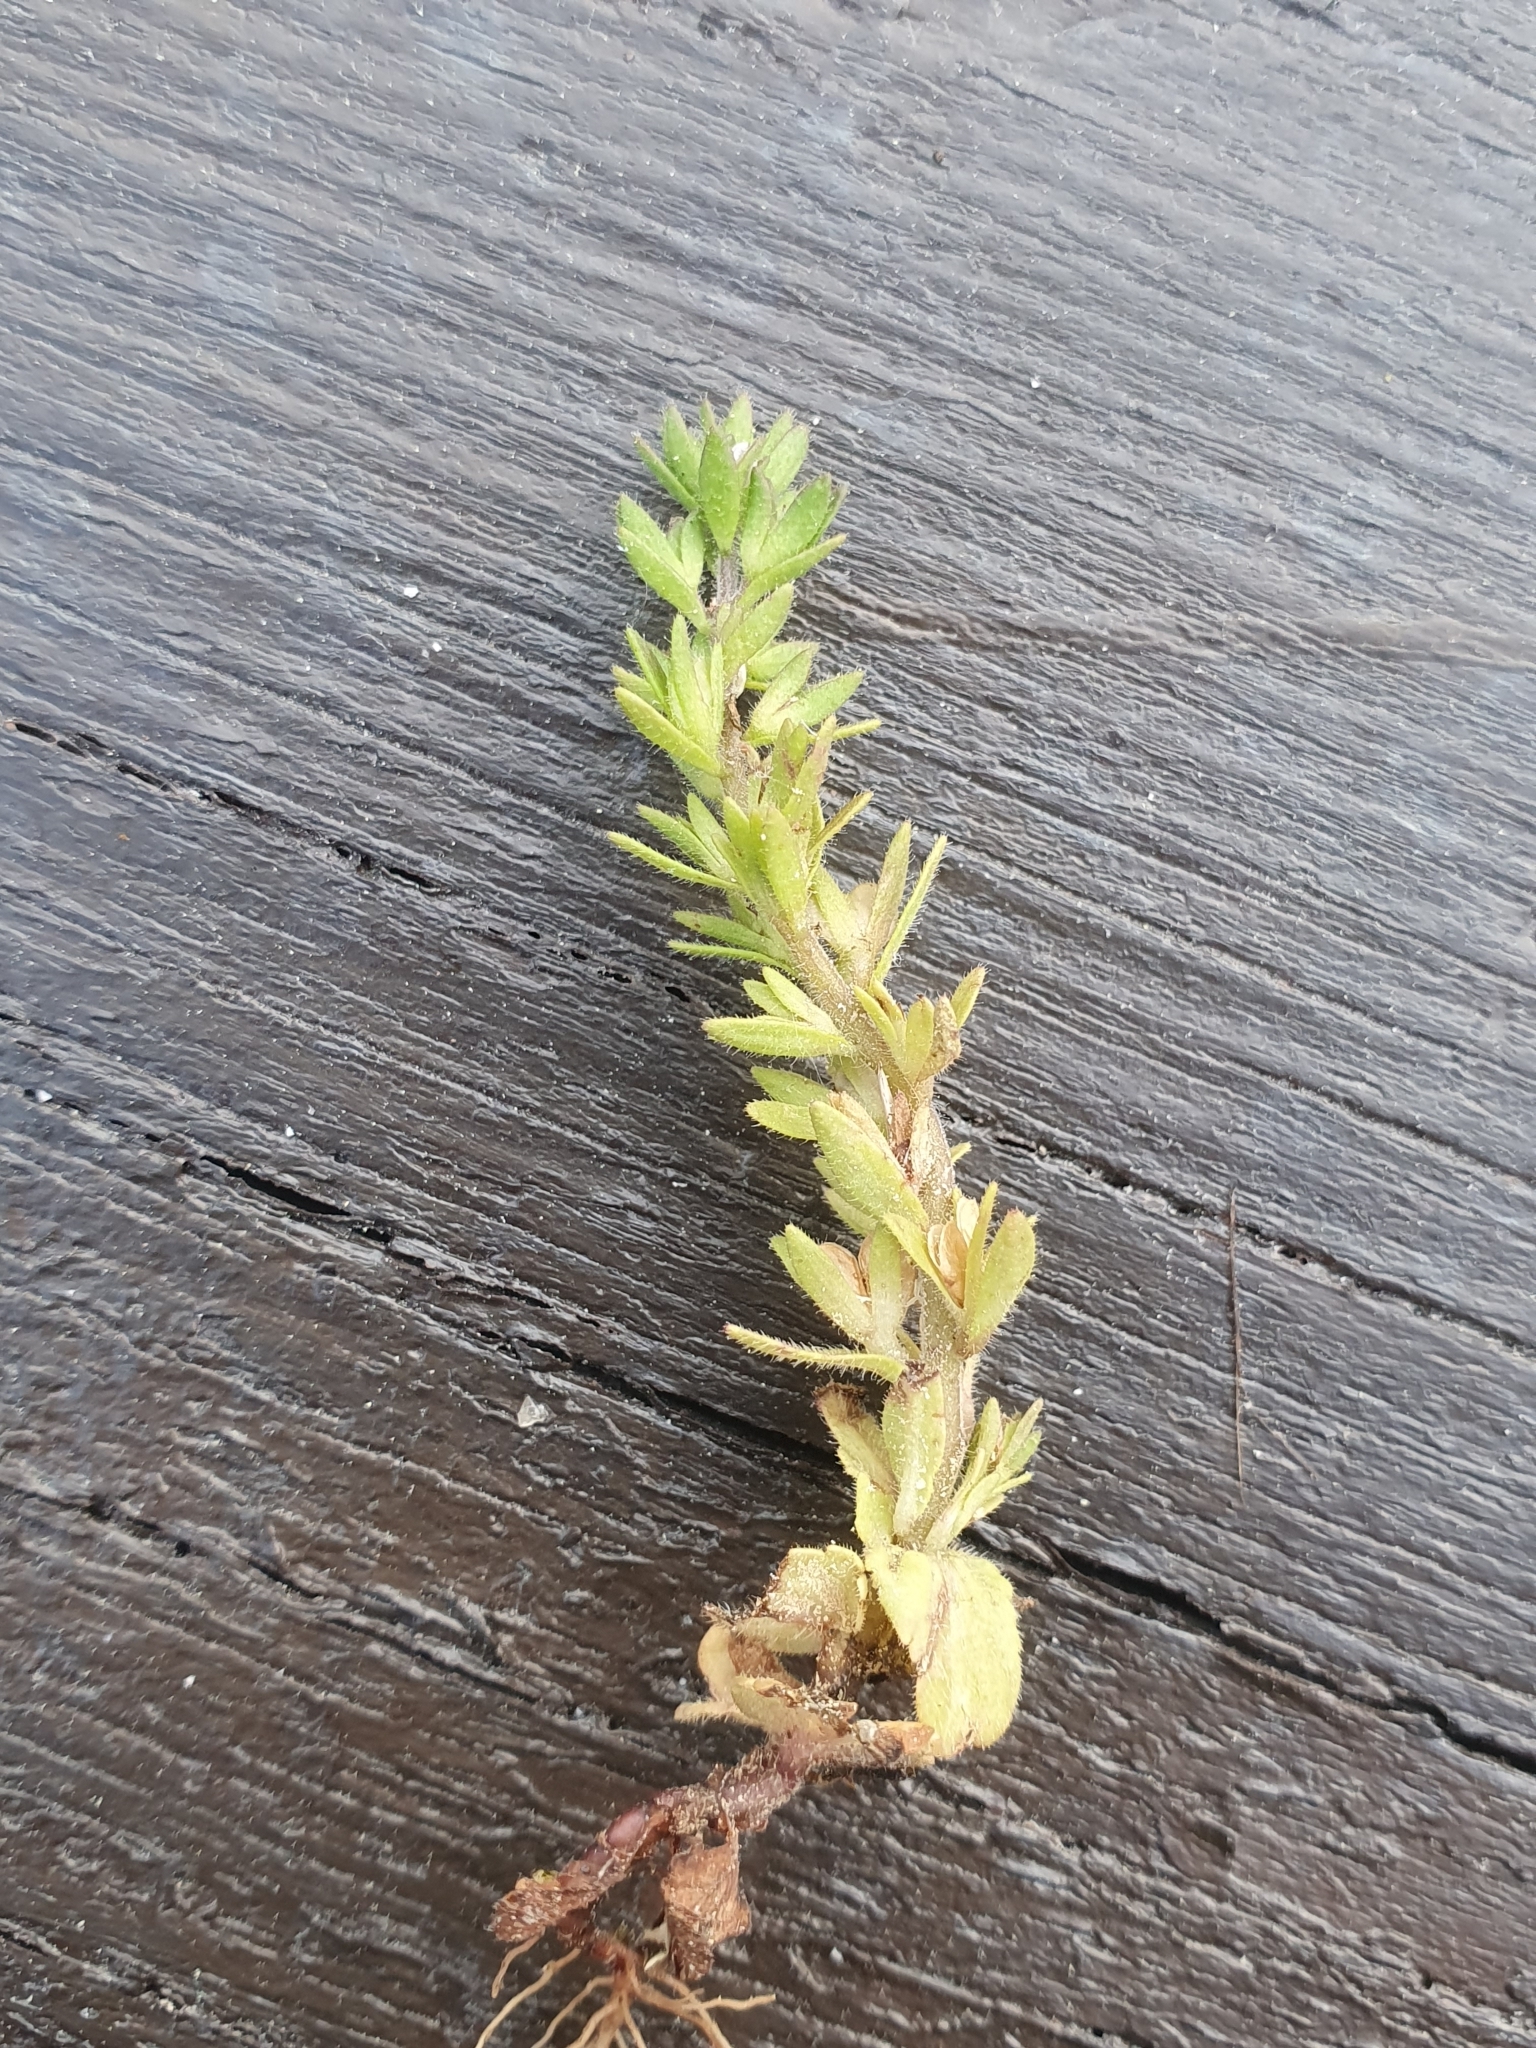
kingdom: Plantae
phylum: Tracheophyta
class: Magnoliopsida
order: Lamiales
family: Plantaginaceae
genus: Veronica
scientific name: Veronica arvensis
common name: Corn speedwell
